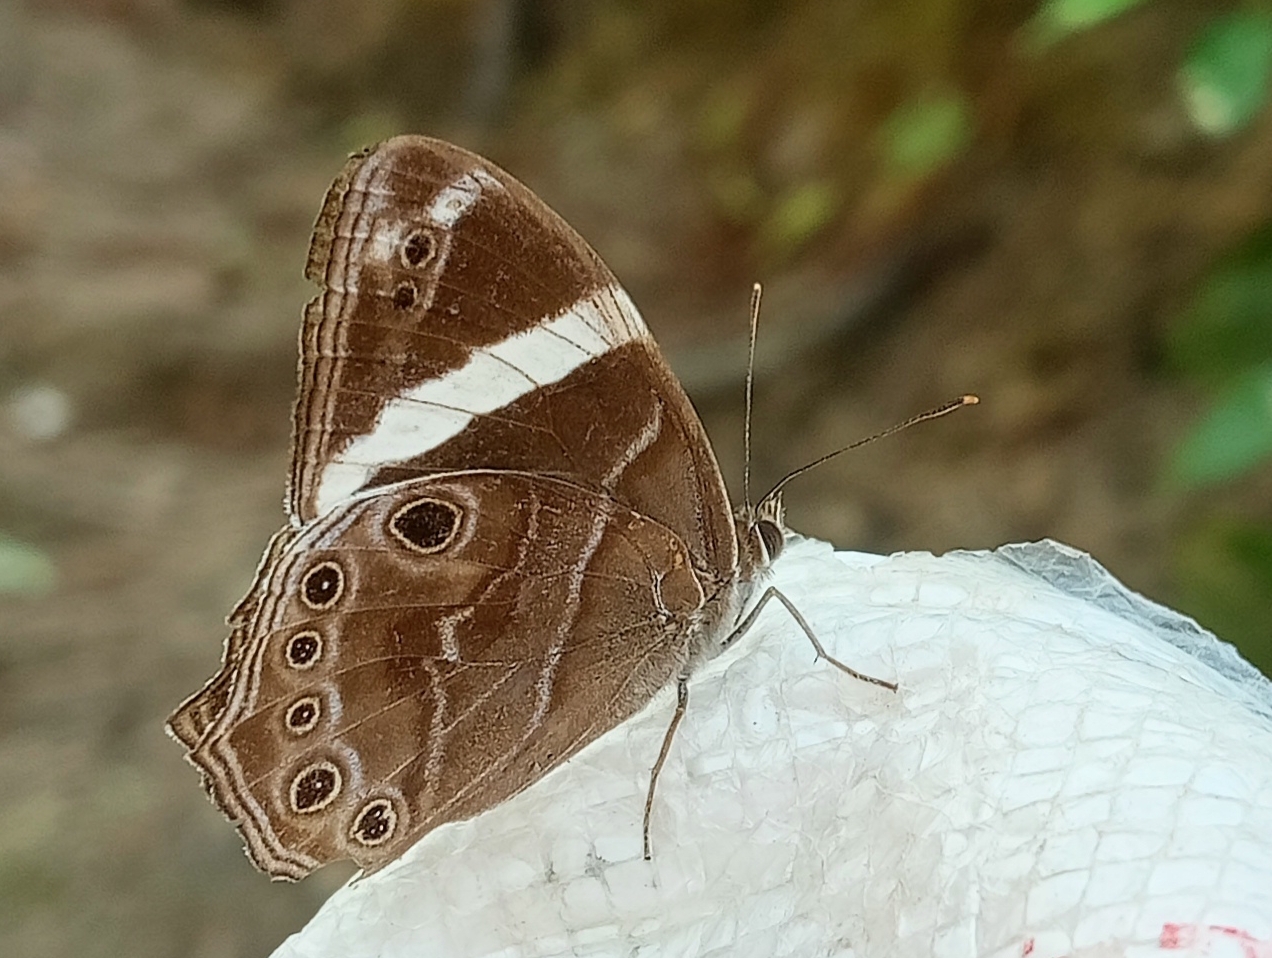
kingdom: Animalia
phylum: Arthropoda
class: Insecta
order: Lepidoptera
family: Nymphalidae
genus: Lethe
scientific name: Lethe confusa
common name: Banded treebrown
